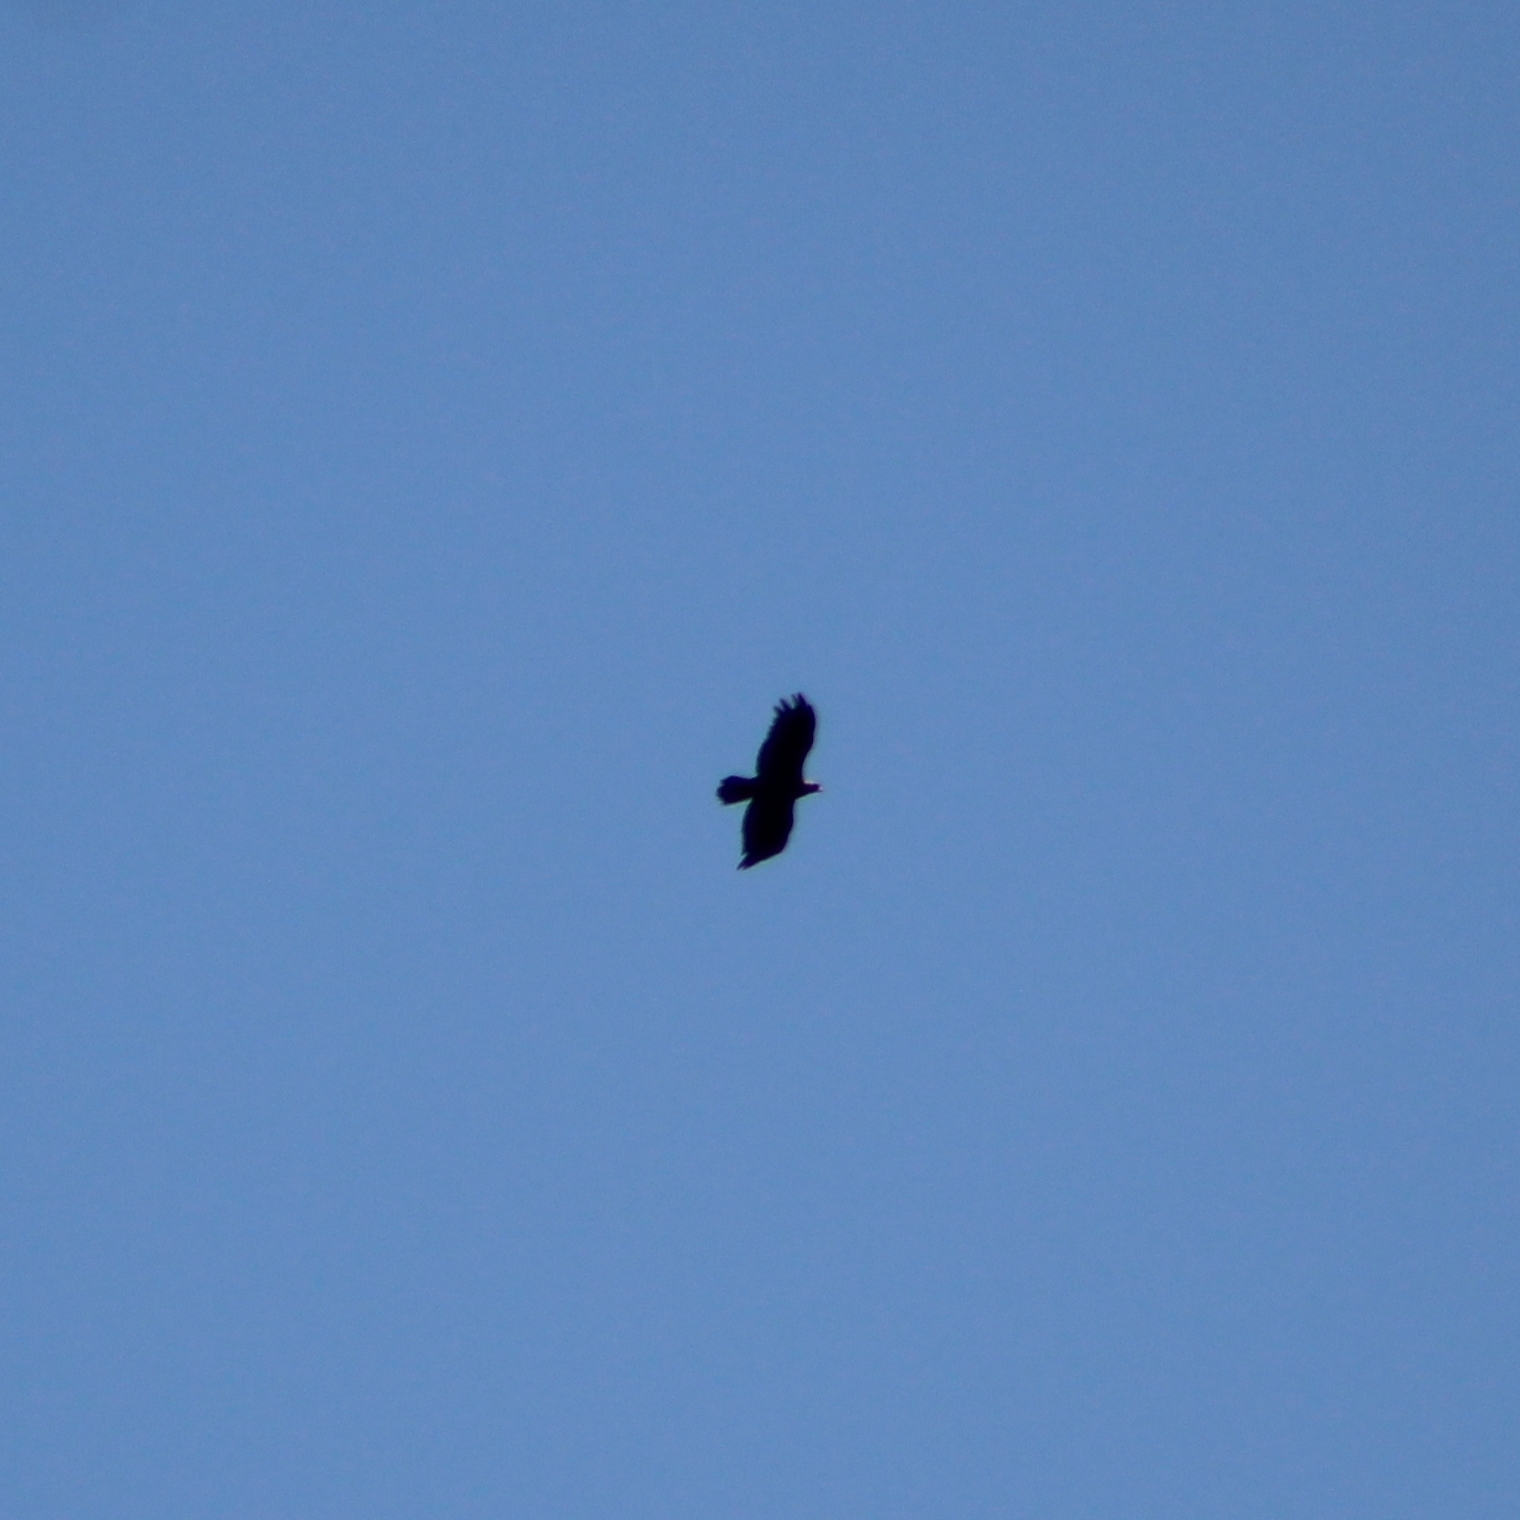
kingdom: Animalia
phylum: Chordata
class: Aves
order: Accipitriformes
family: Accipitridae
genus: Aquila
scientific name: Aquila chrysaetos
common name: Golden eagle
